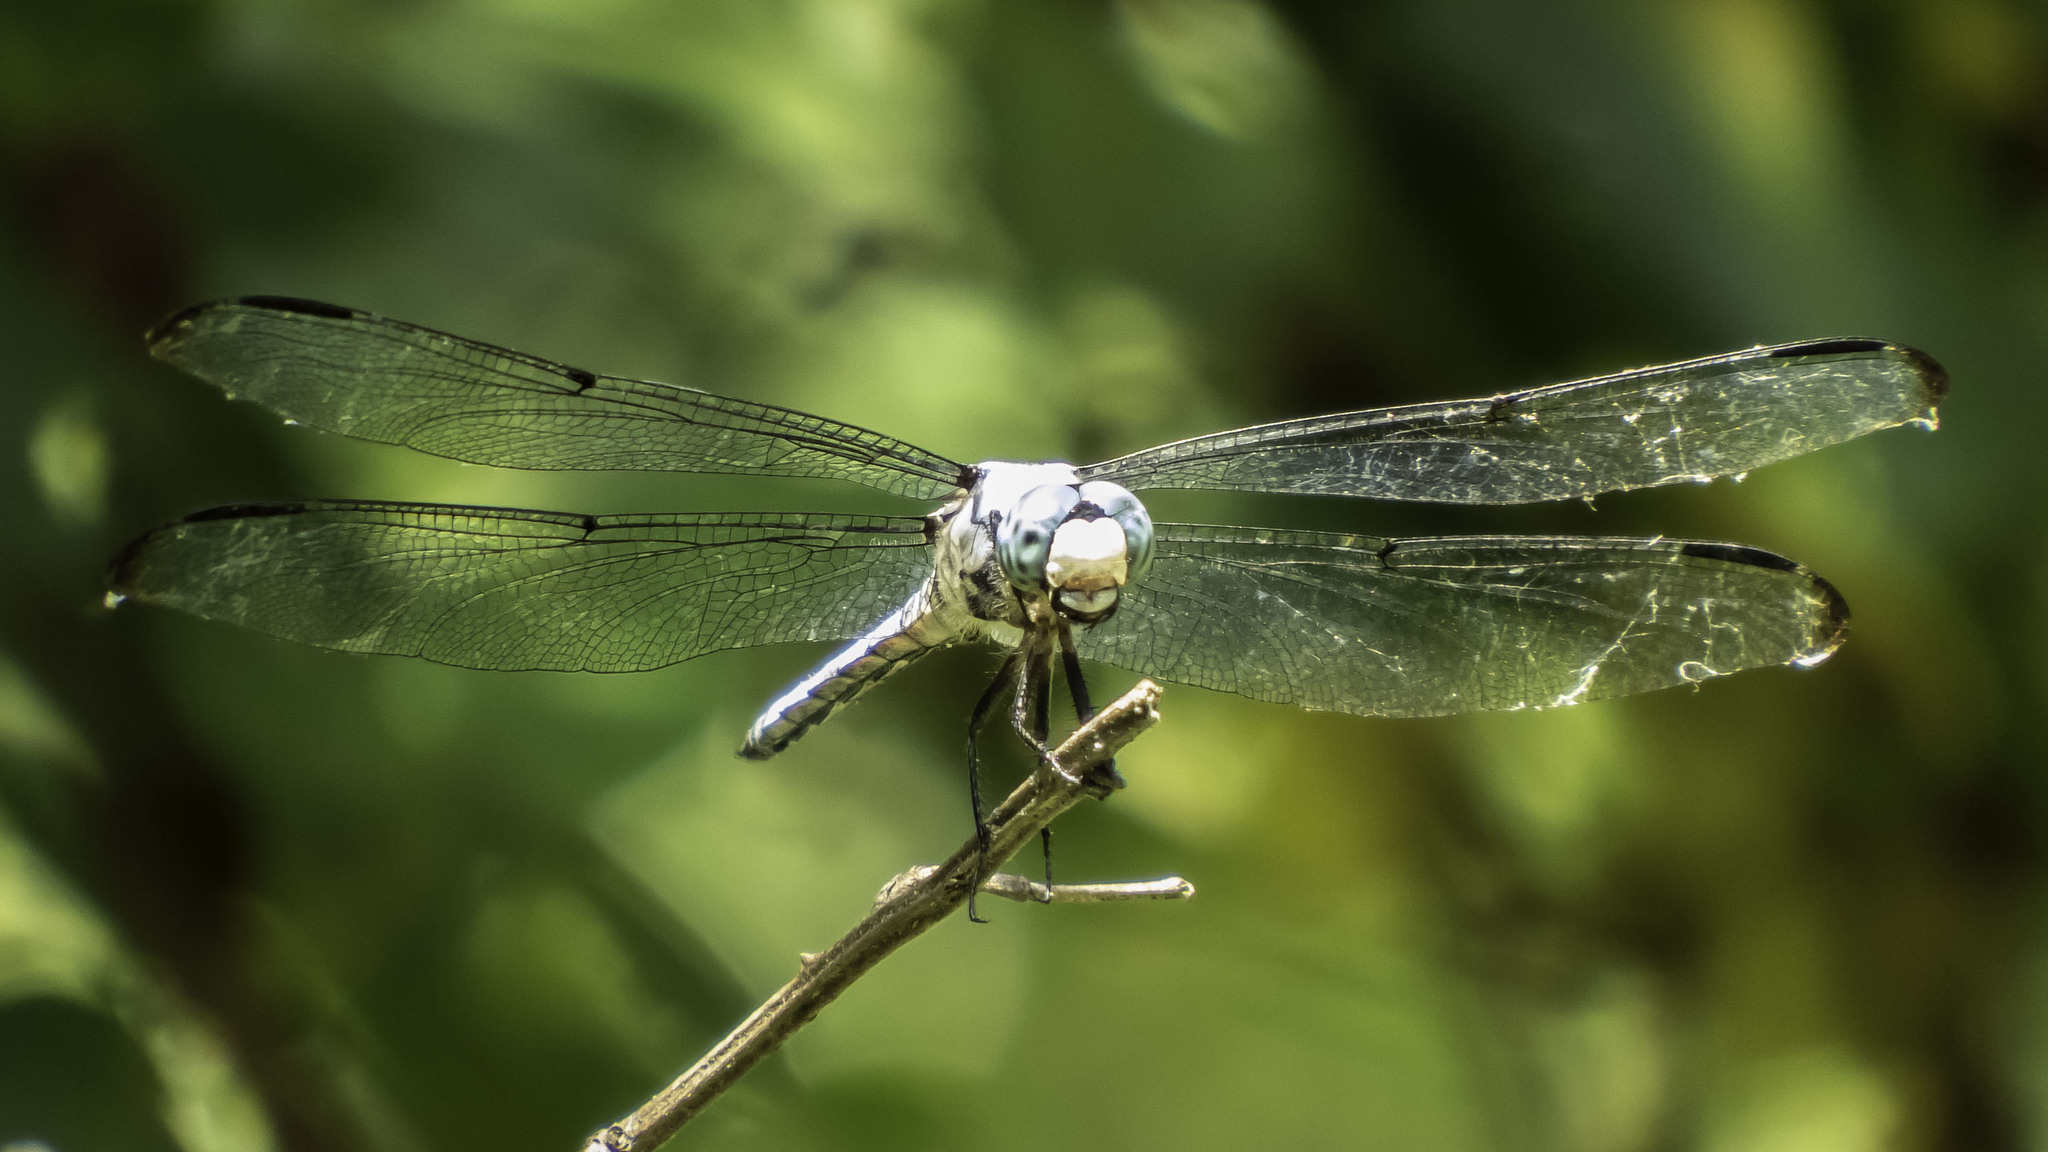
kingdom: Animalia
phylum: Arthropoda
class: Insecta
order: Odonata
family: Libellulidae
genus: Libellula
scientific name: Libellula vibrans
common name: Great blue skimmer
